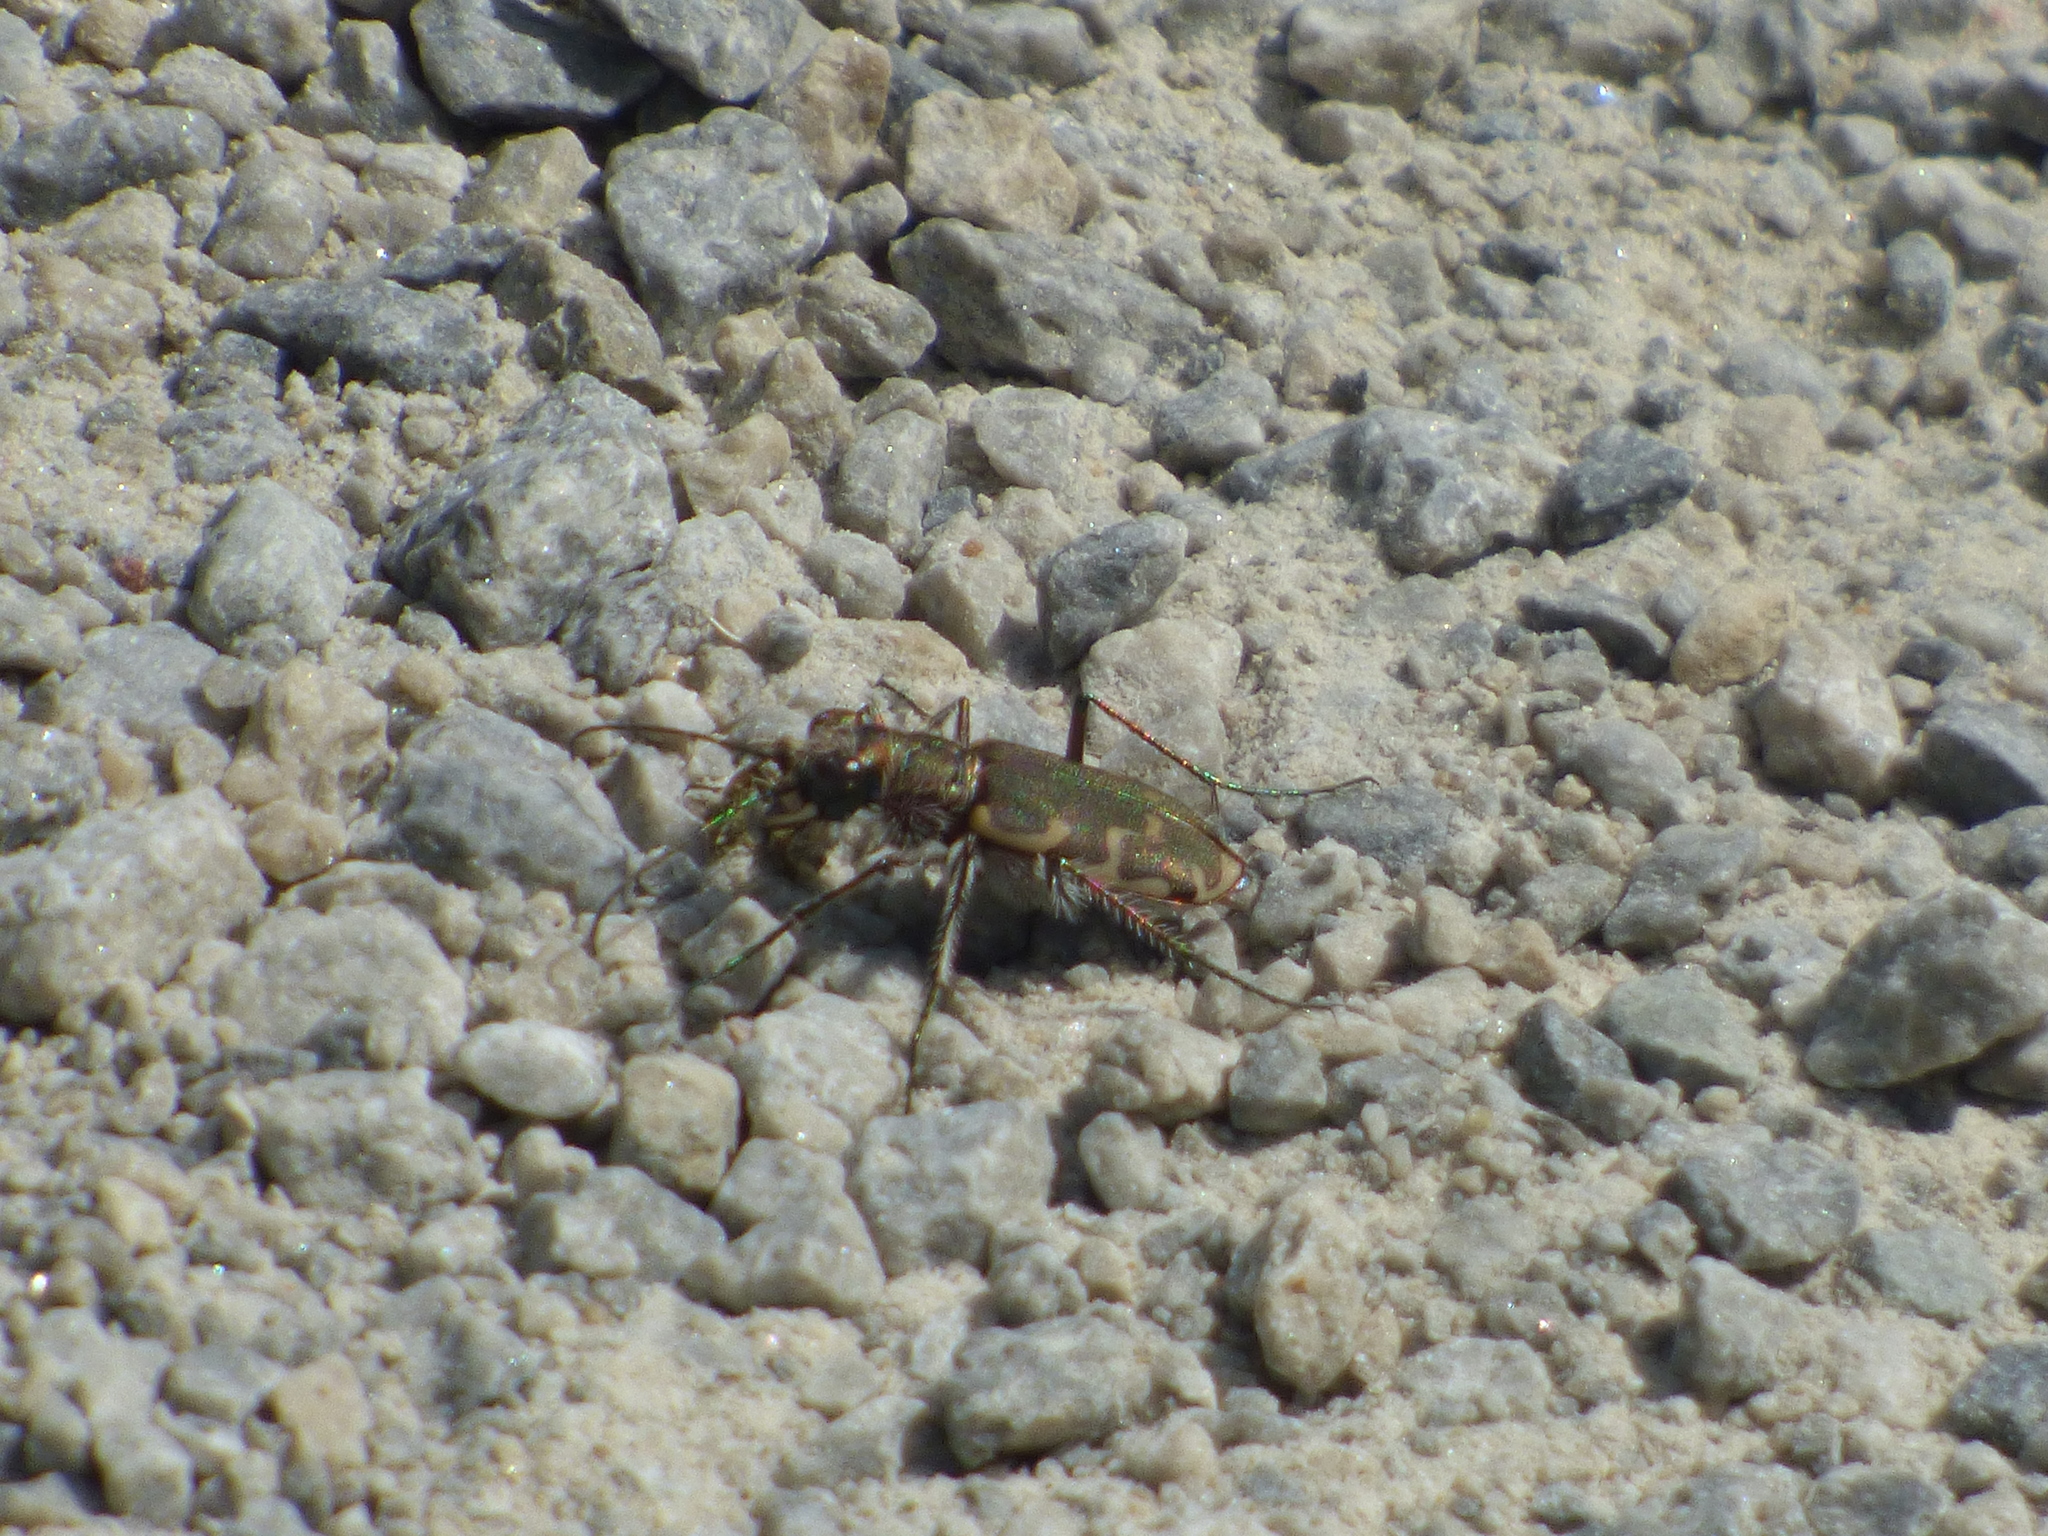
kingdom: Animalia
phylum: Arthropoda
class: Insecta
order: Coleoptera
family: Carabidae
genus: Cicindela
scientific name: Cicindela repanda
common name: Bronzed tiger beetle
